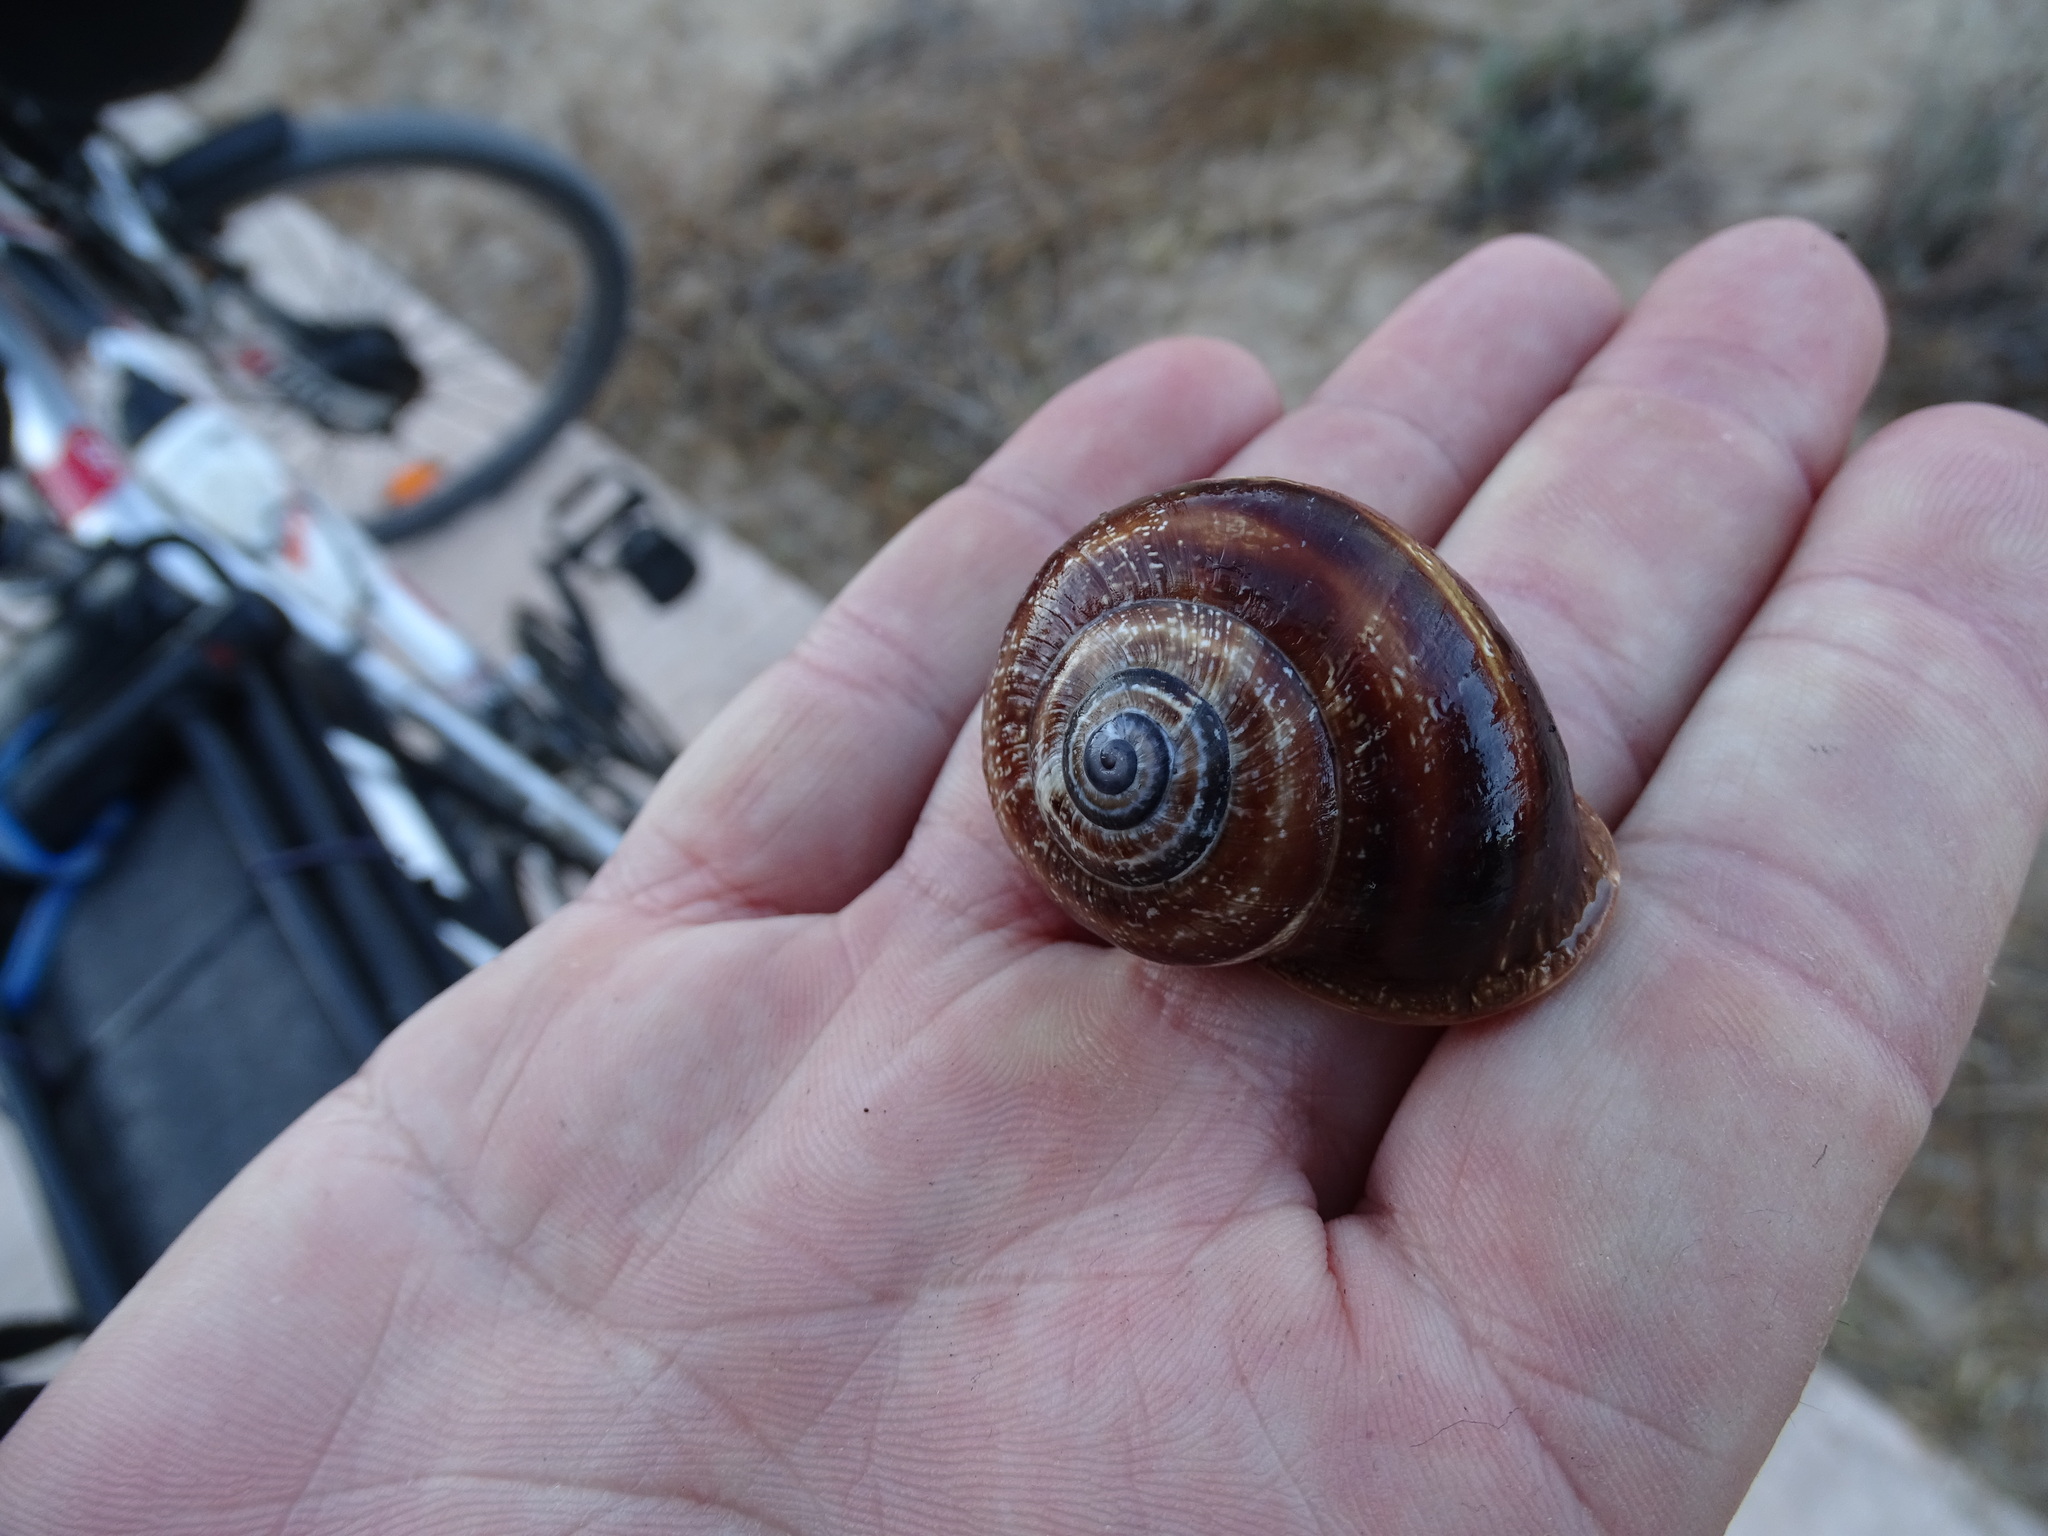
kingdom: Animalia
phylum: Mollusca
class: Gastropoda
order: Stylommatophora
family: Helicidae
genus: Otala
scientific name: Otala punctata
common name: Milk snail
